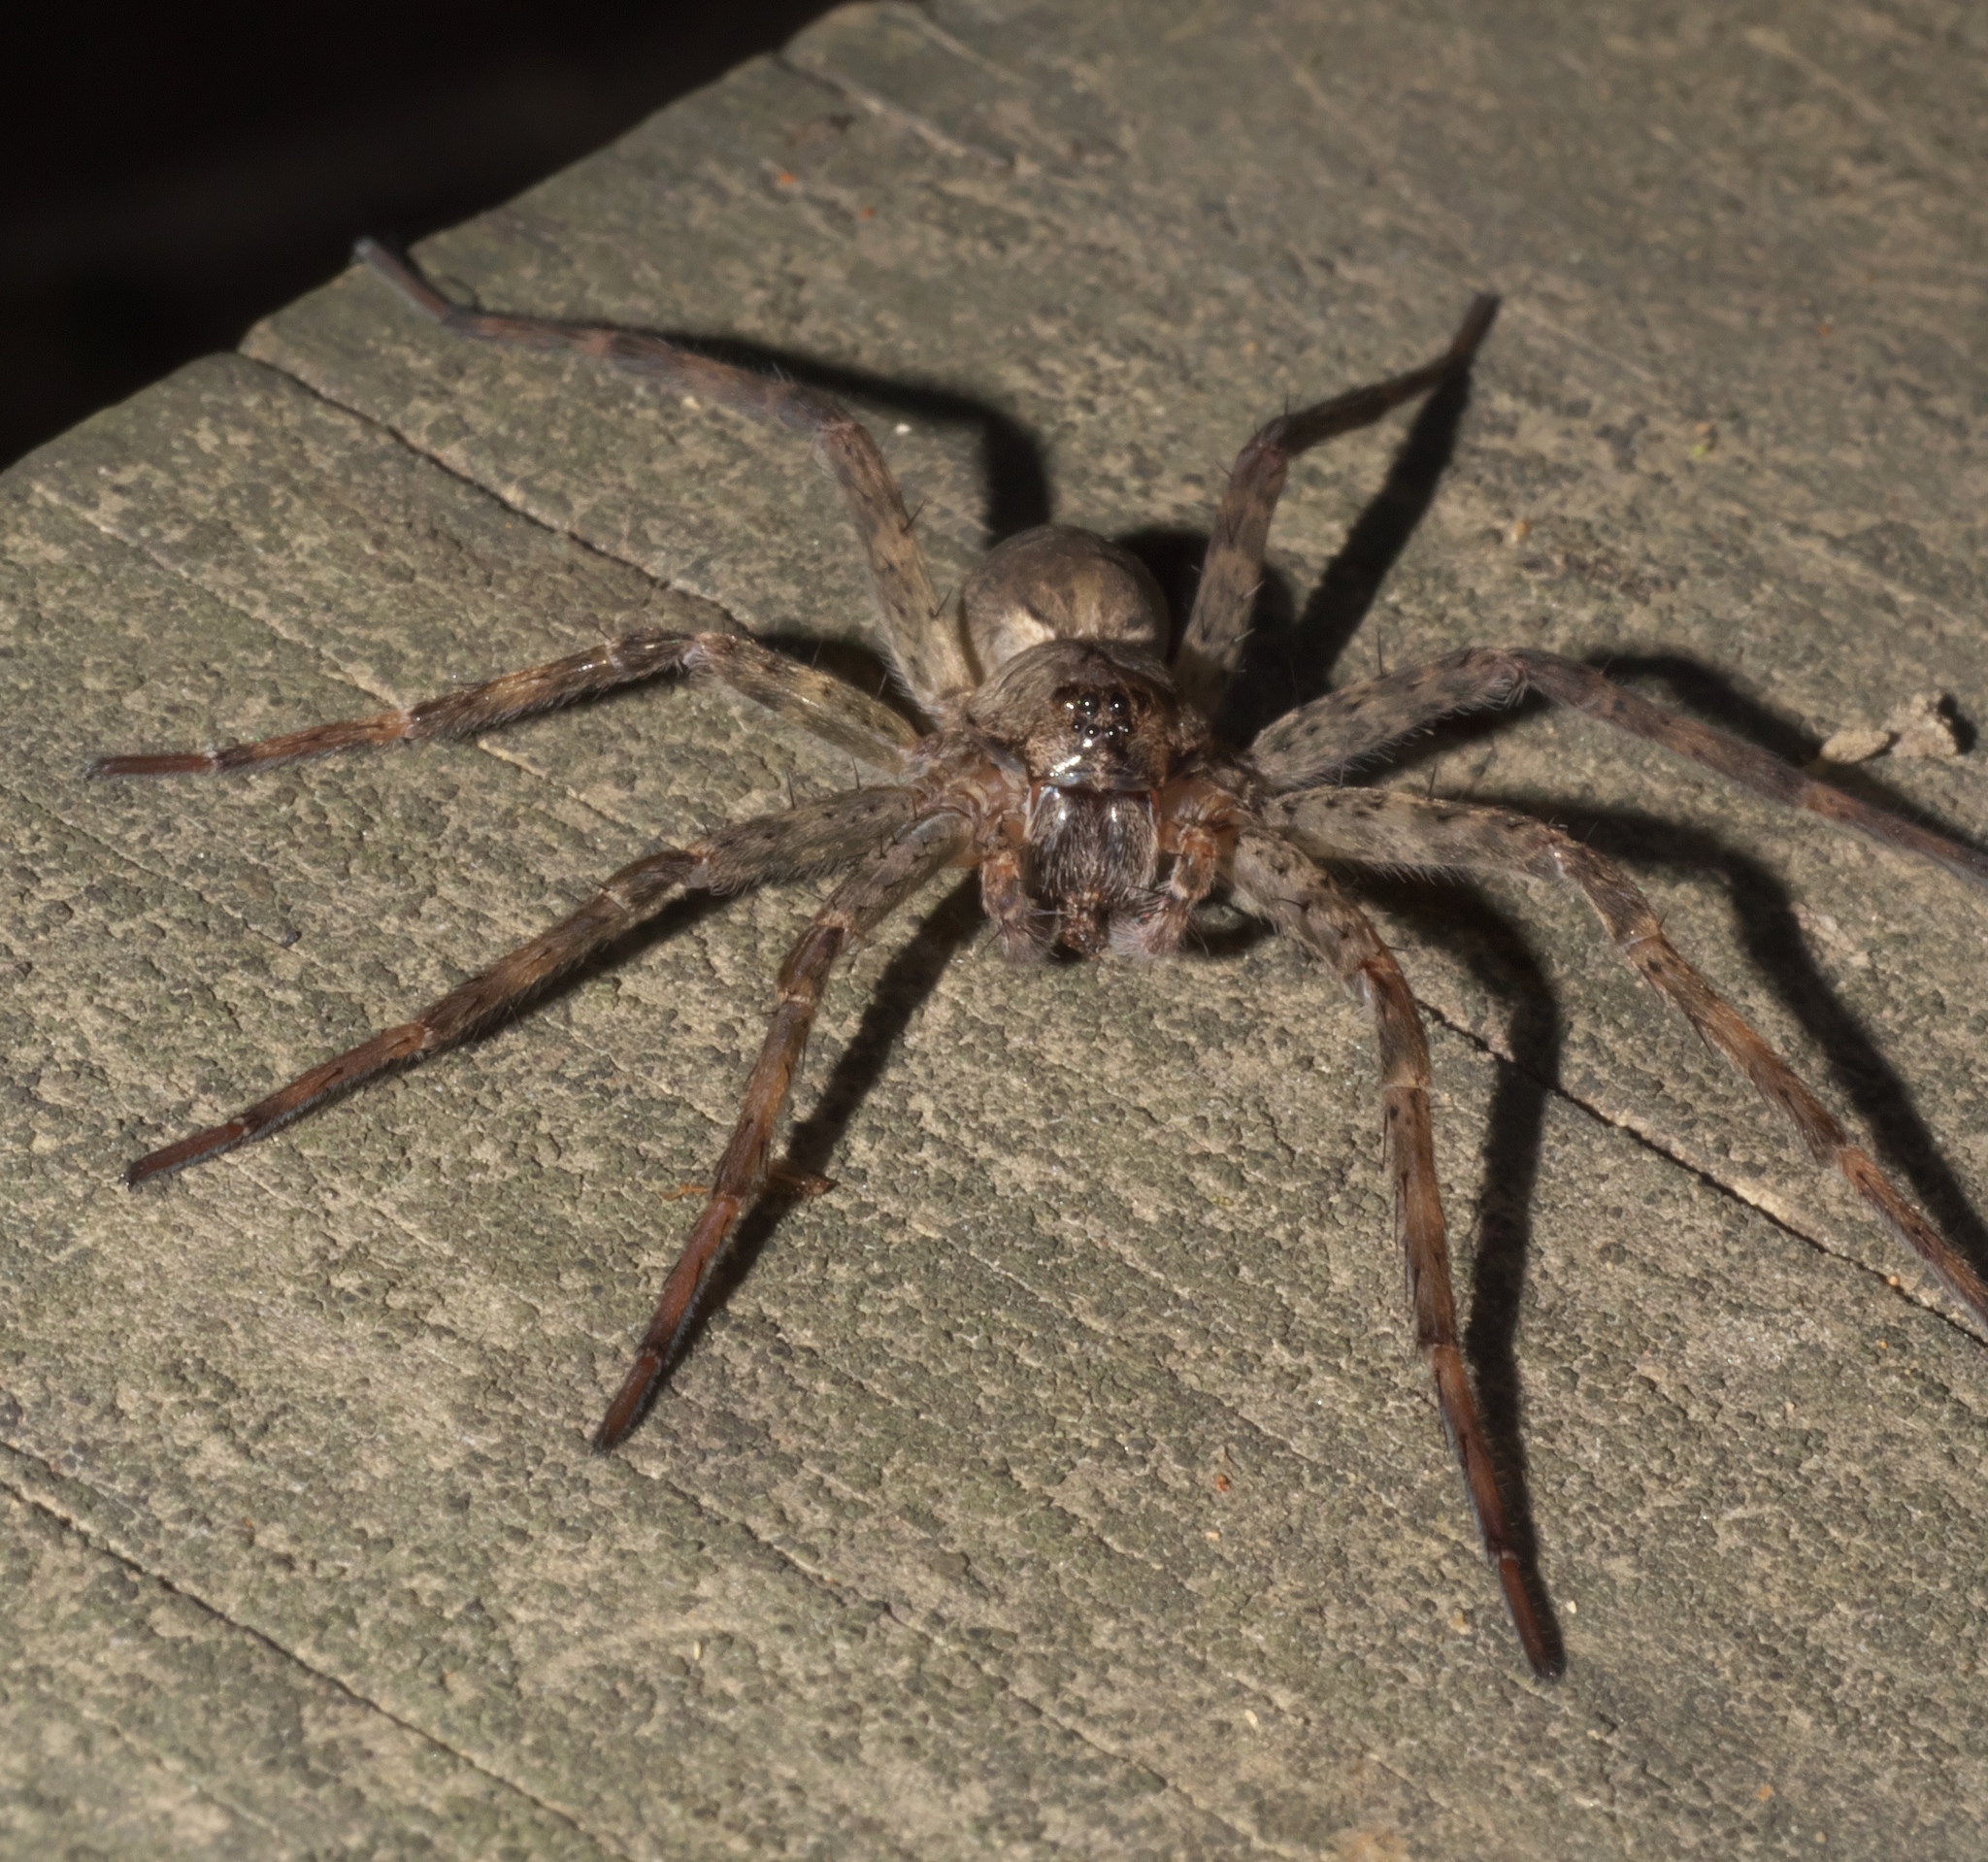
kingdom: Animalia
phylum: Arthropoda
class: Arachnida
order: Araneae
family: Pisauridae
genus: Dolomedes
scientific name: Dolomedes tenebrosus
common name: Dark fishing spider
